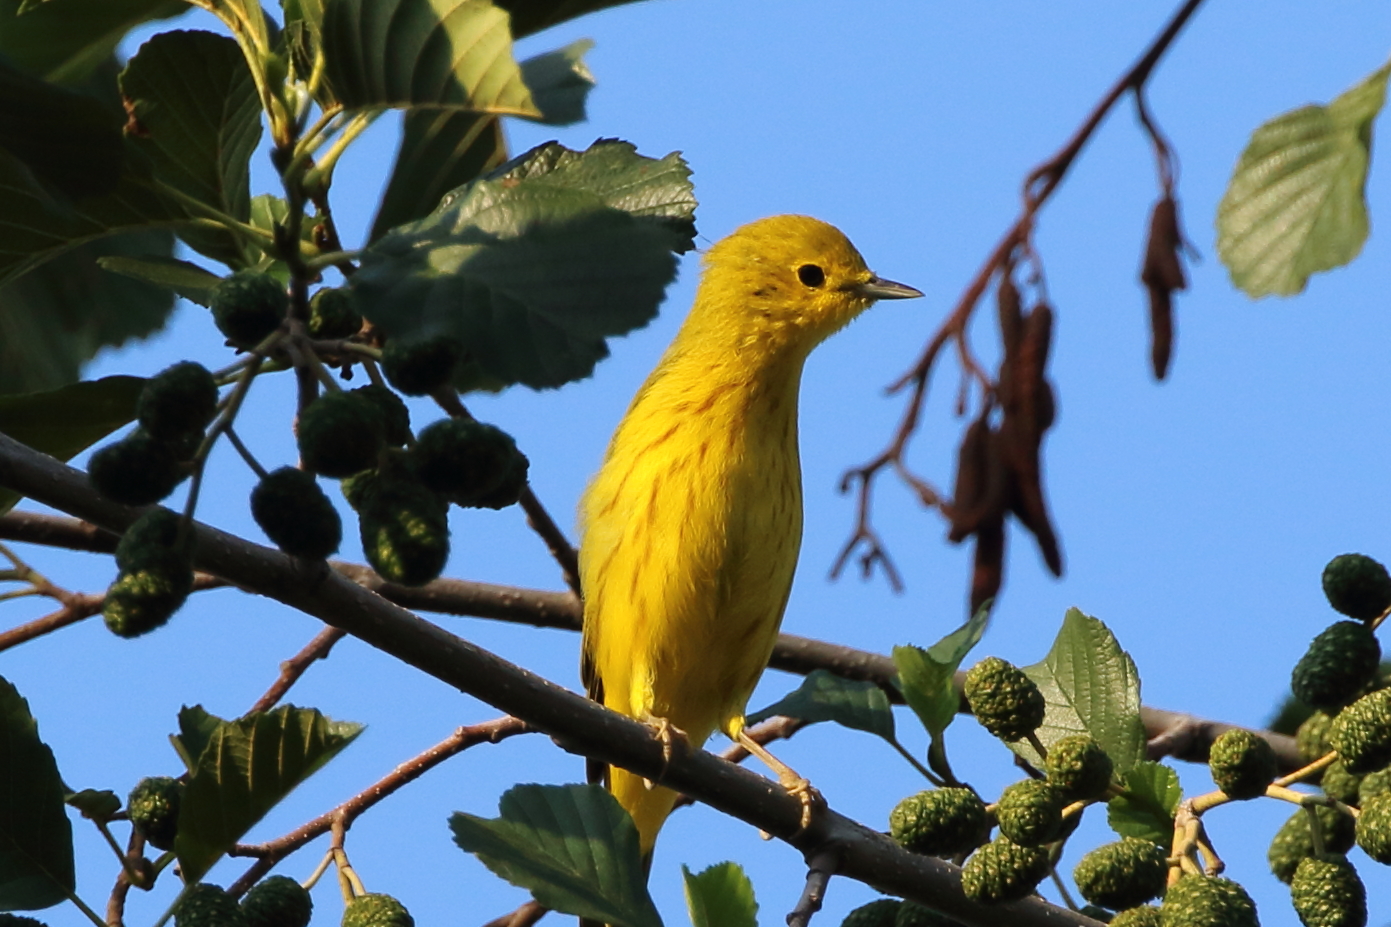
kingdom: Animalia
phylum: Chordata
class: Aves
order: Passeriformes
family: Parulidae
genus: Setophaga
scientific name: Setophaga petechia
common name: Yellow warbler
